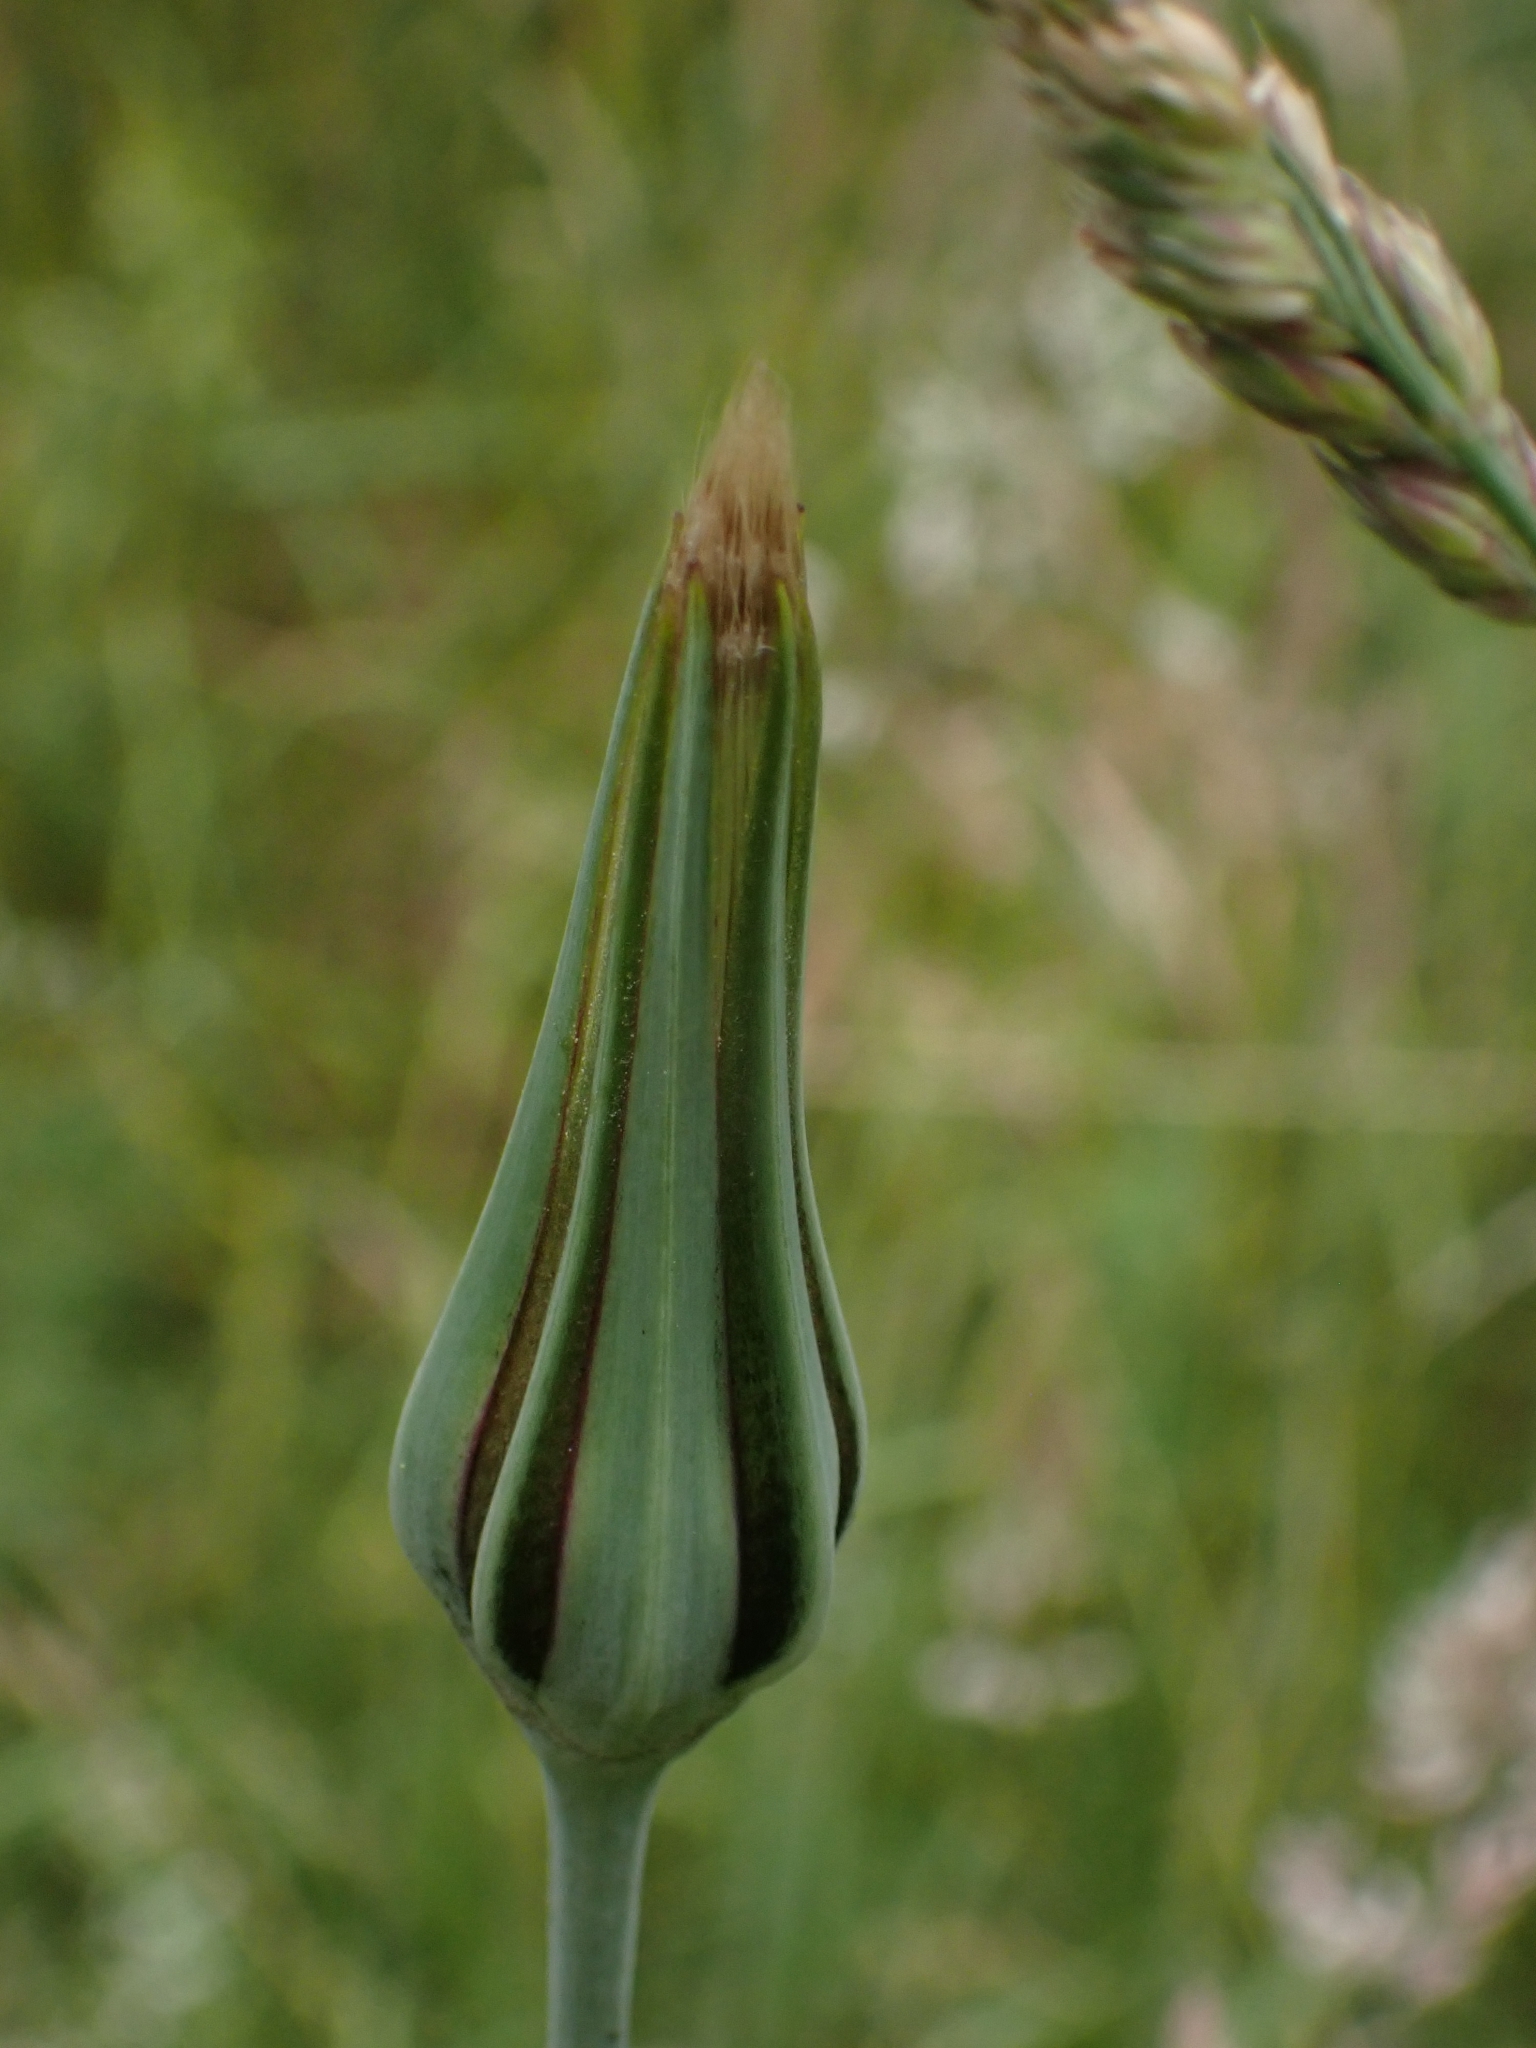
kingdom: Plantae
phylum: Tracheophyta
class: Magnoliopsida
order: Asterales
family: Asteraceae
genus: Tragopogon
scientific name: Tragopogon pratensis
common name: Goat's-beard
